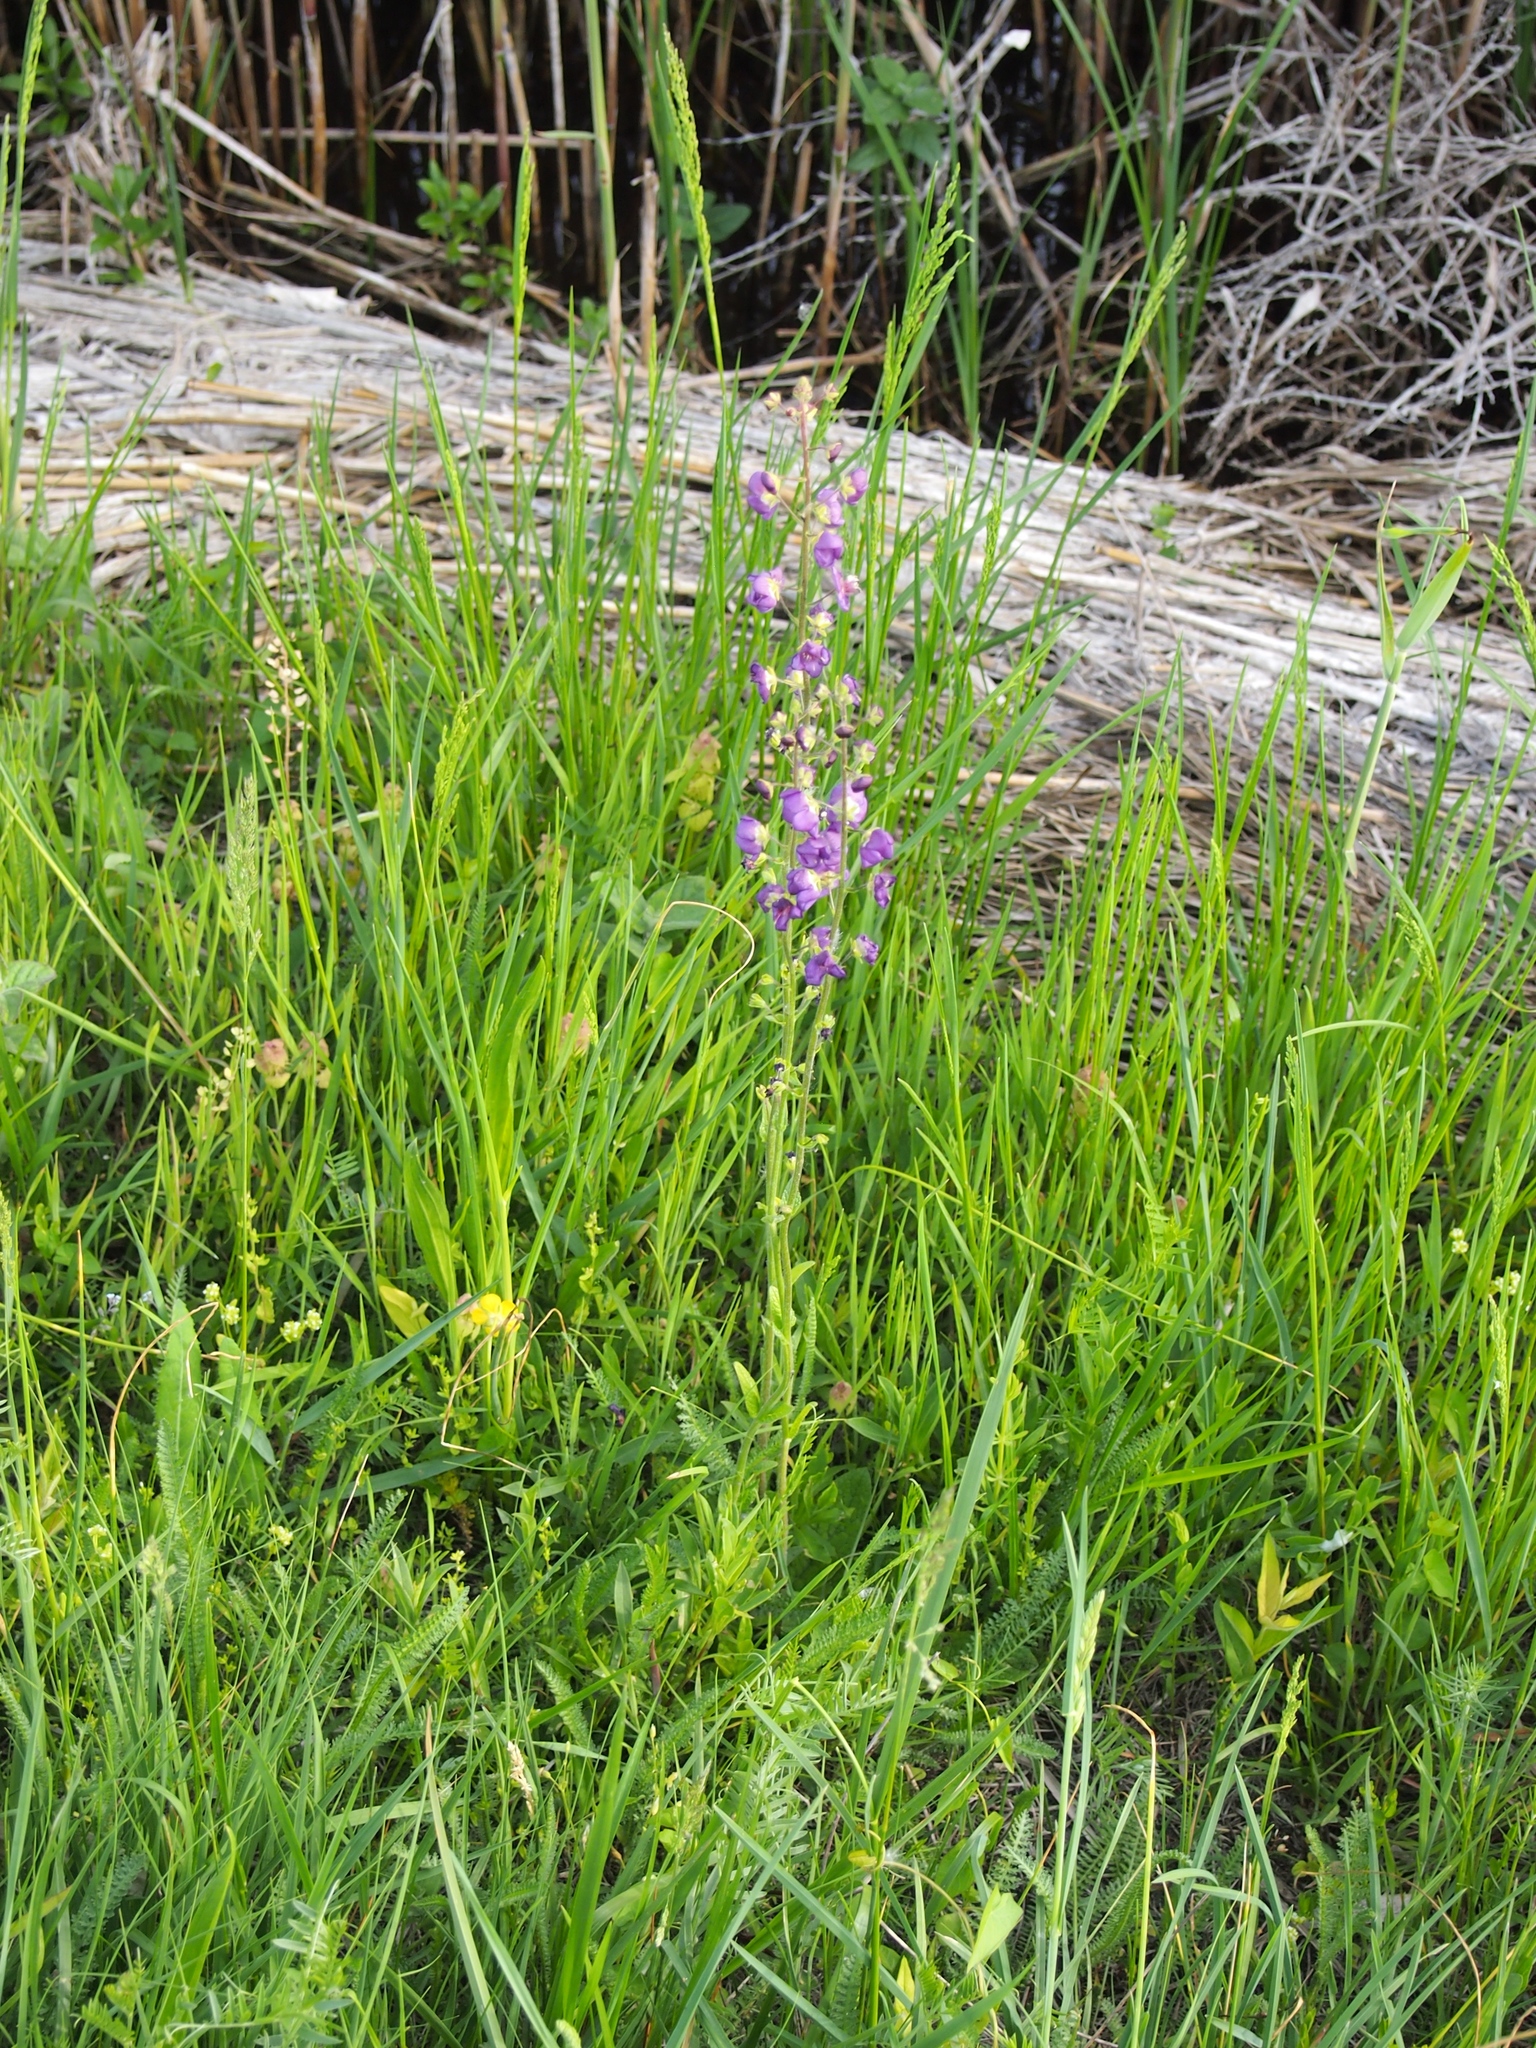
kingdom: Plantae
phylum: Tracheophyta
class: Magnoliopsida
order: Lamiales
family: Scrophulariaceae
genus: Verbascum
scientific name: Verbascum phoeniceum
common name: Purple mullein
